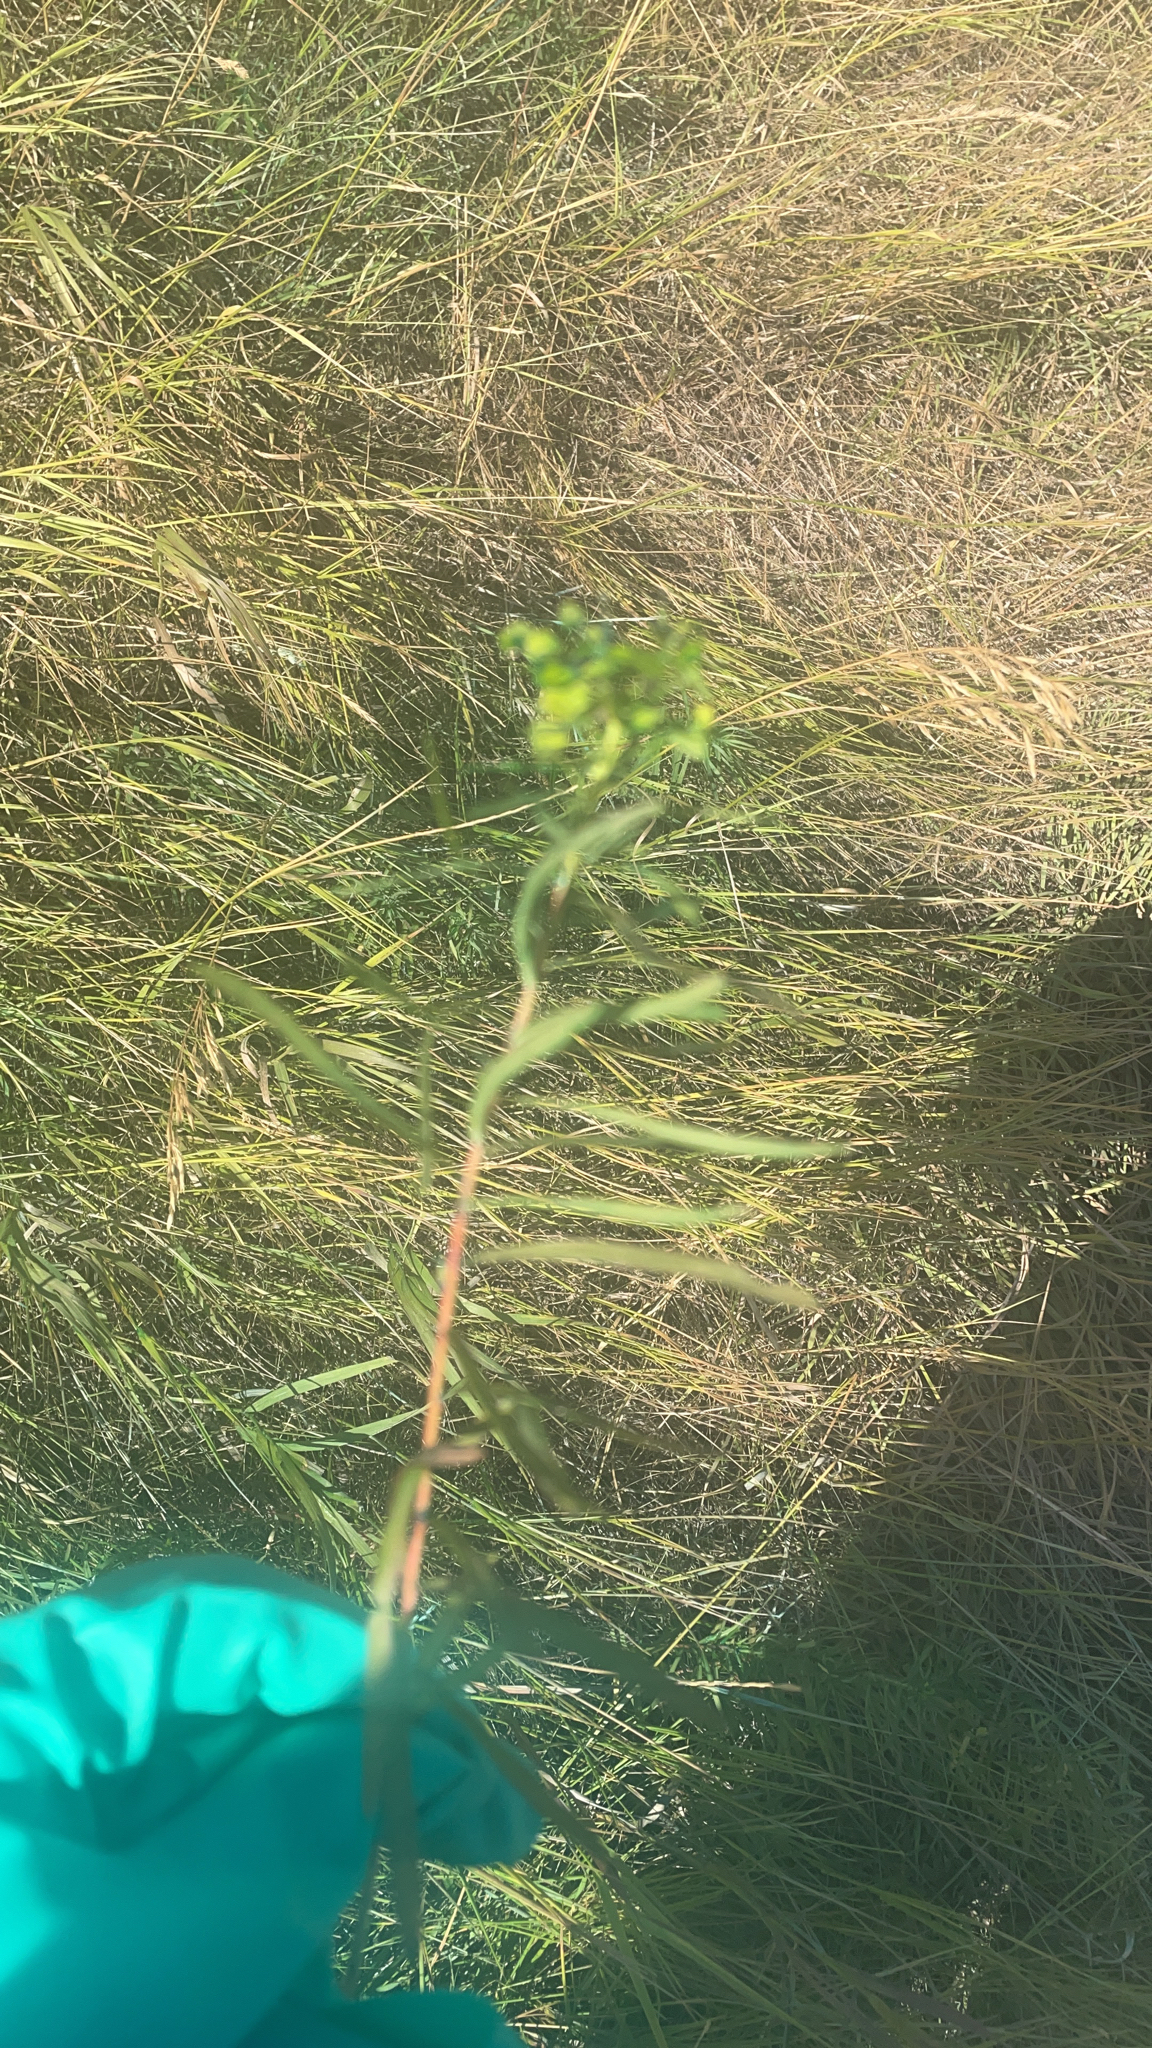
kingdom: Plantae
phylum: Tracheophyta
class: Magnoliopsida
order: Malpighiales
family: Euphorbiaceae
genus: Euphorbia
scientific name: Euphorbia virgata
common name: Leafy spurge
